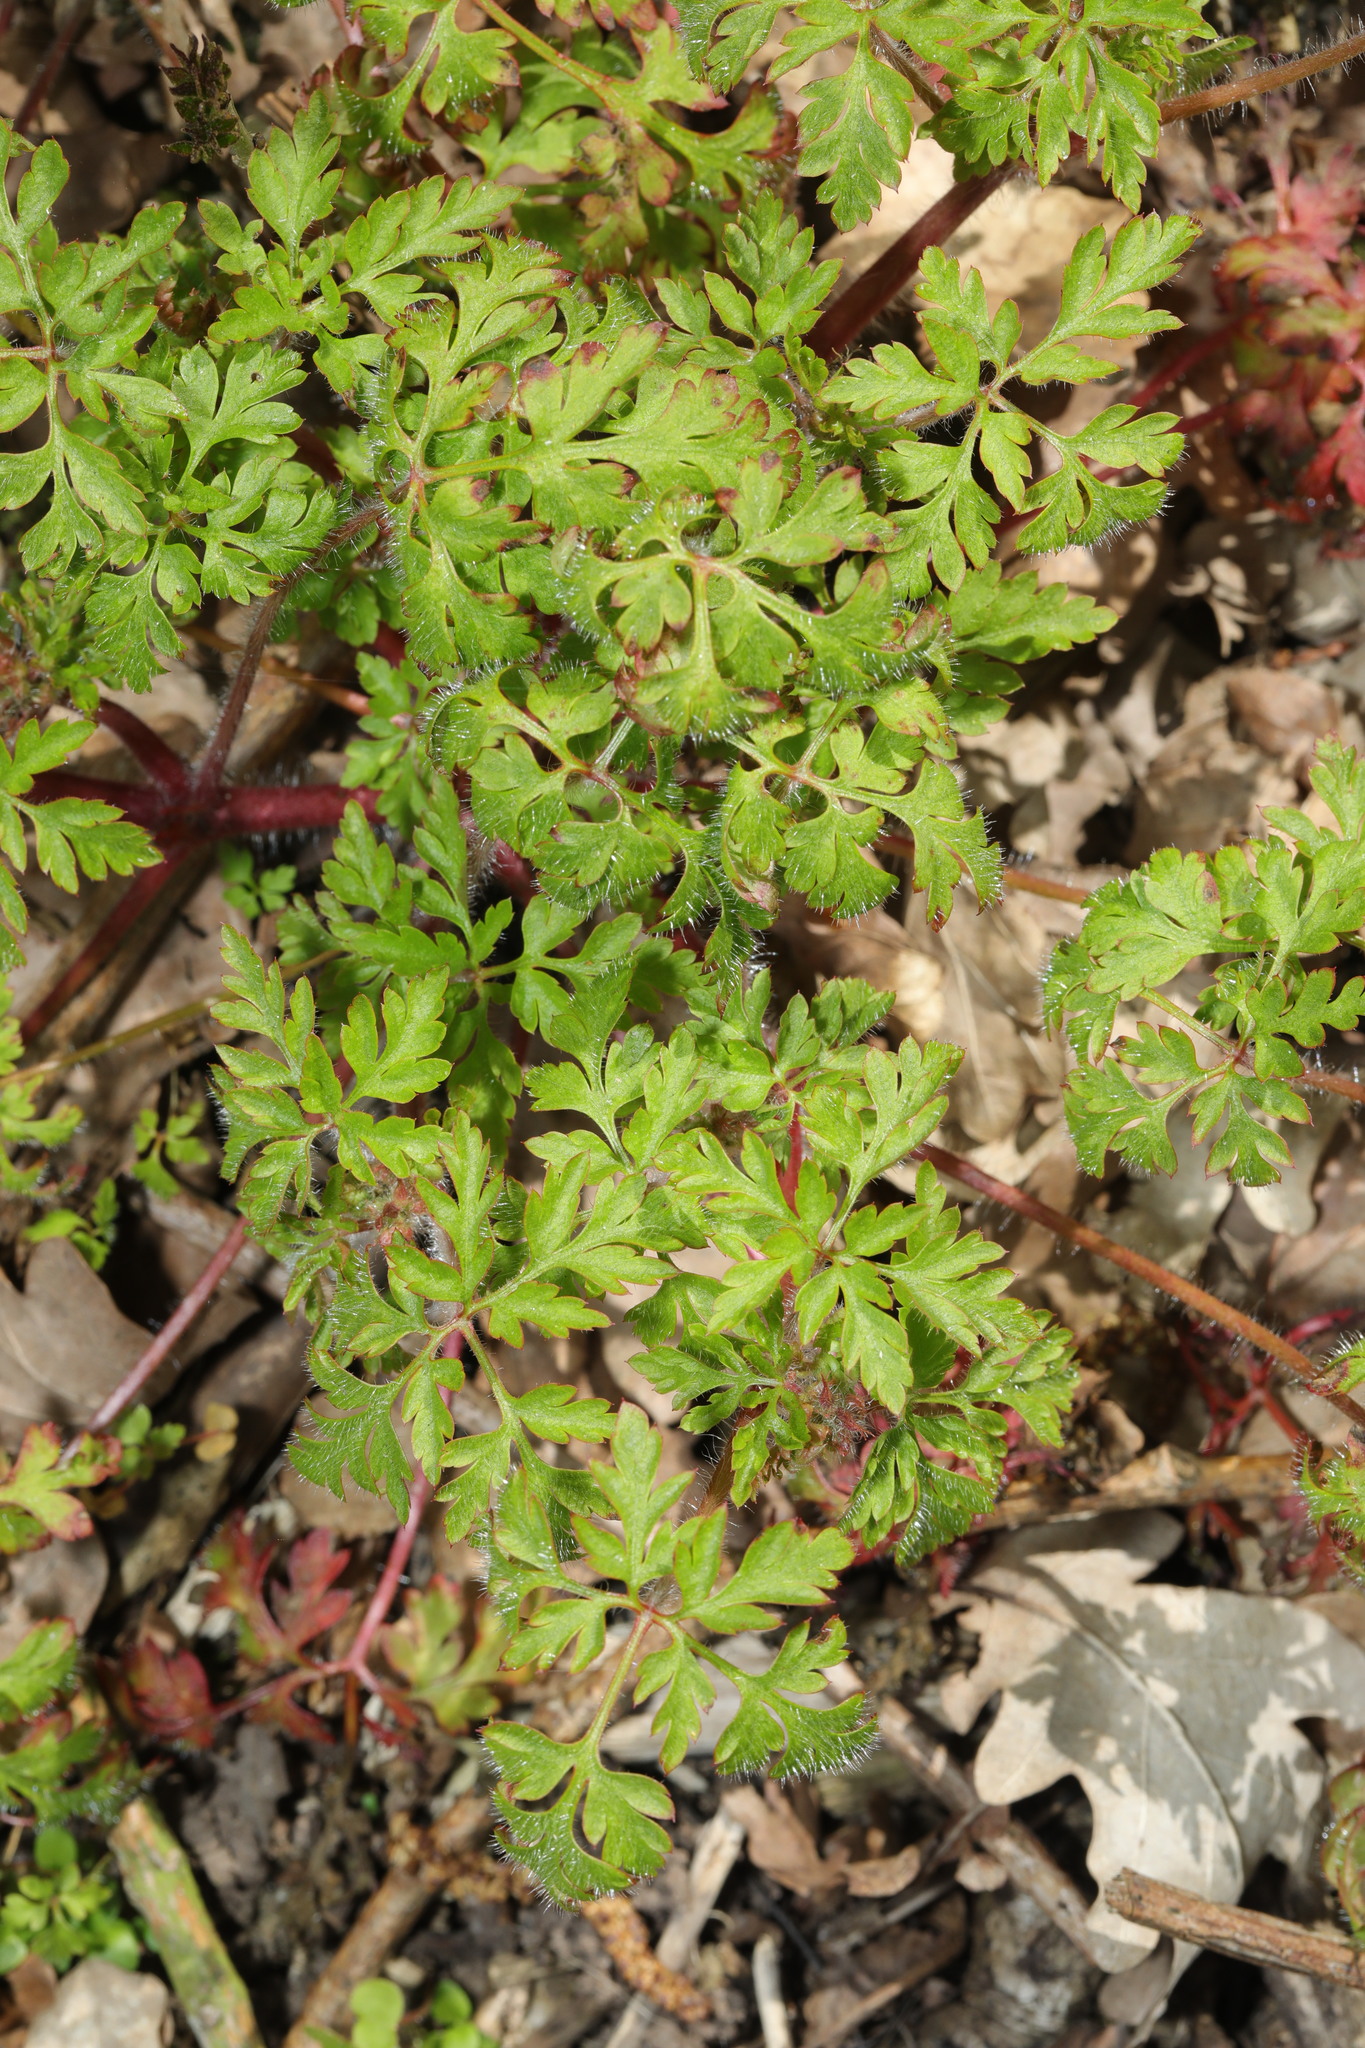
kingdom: Plantae
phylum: Tracheophyta
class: Magnoliopsida
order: Geraniales
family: Geraniaceae
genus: Geranium
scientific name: Geranium robertianum
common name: Herb-robert
